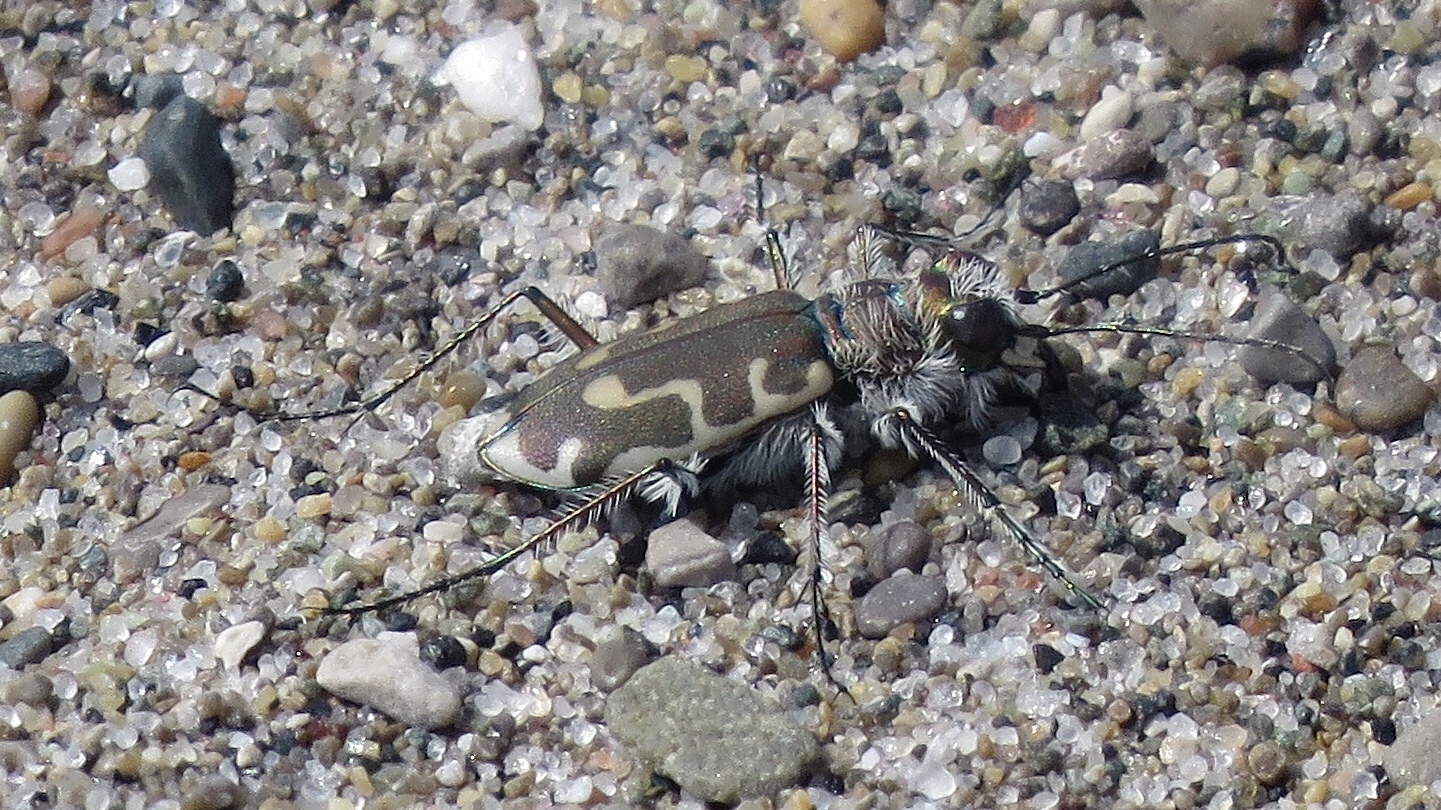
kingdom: Animalia
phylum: Arthropoda
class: Insecta
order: Coleoptera
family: Carabidae
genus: Cicindela
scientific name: Cicindela hirticollis
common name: Hairy-necked tiger beetle
